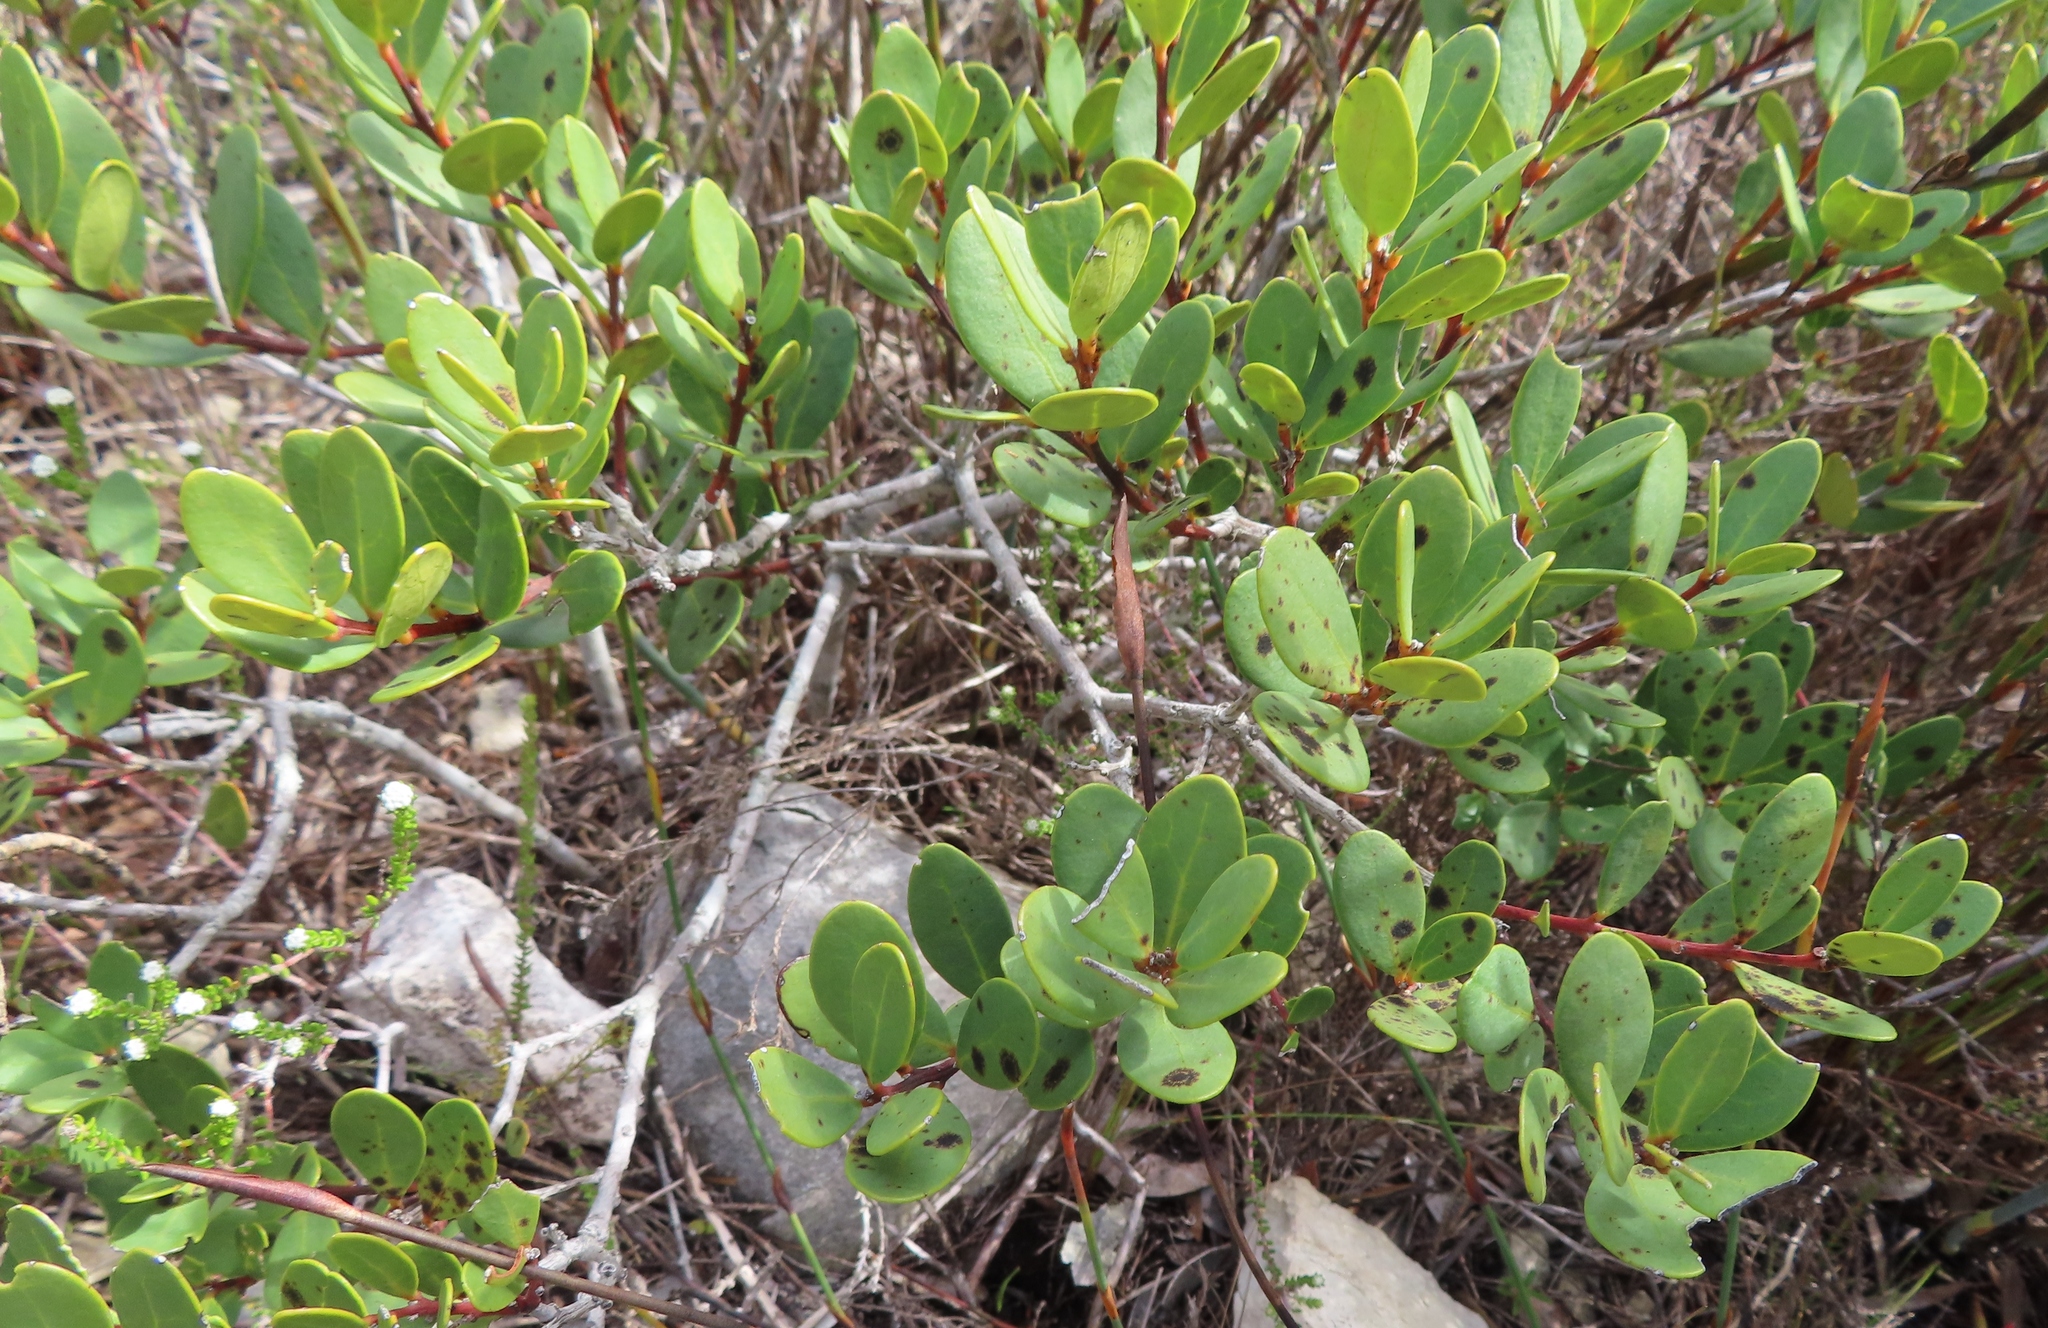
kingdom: Plantae
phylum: Tracheophyta
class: Magnoliopsida
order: Ericales
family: Ebenaceae
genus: Euclea
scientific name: Euclea racemosa
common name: Dune guarri
